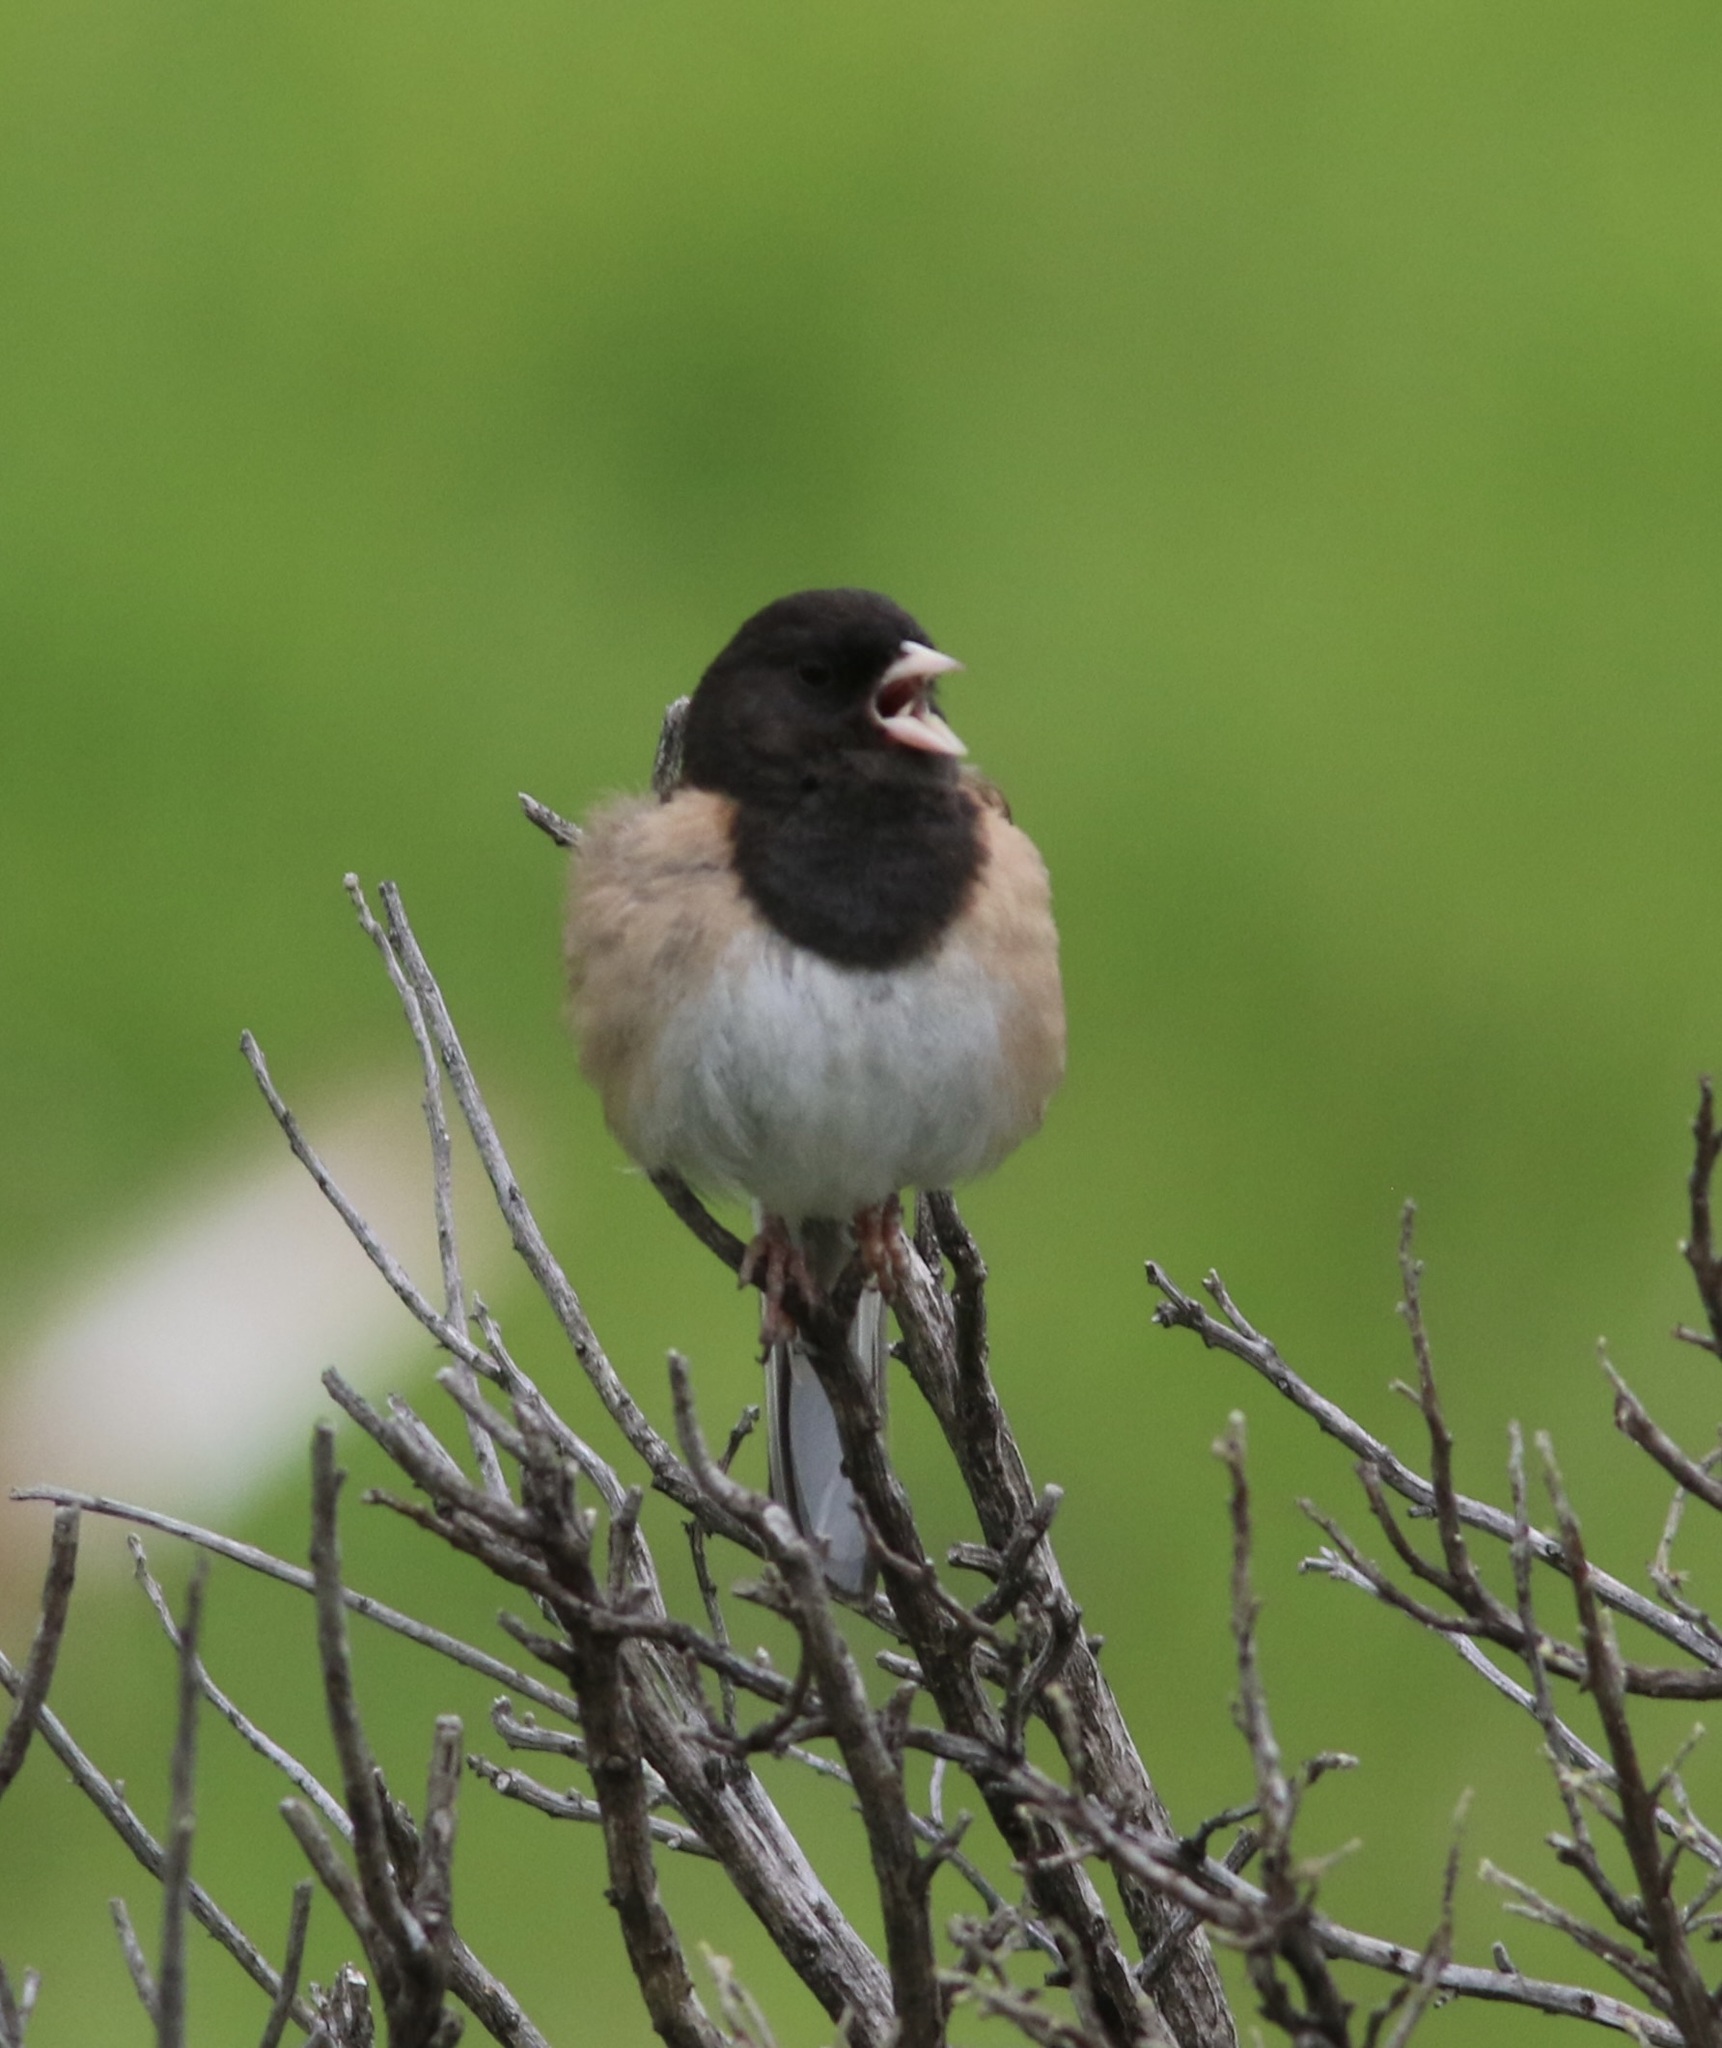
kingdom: Animalia
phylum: Chordata
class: Aves
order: Passeriformes
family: Passerellidae
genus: Junco
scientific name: Junco hyemalis
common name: Dark-eyed junco
